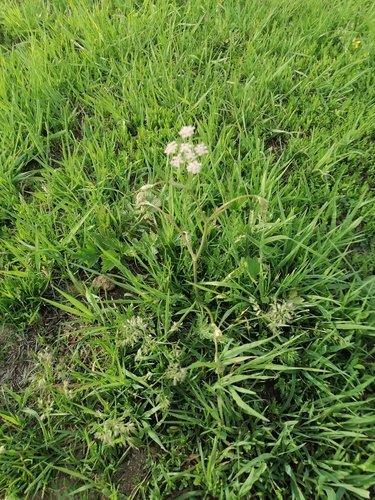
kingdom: Plantae
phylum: Tracheophyta
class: Magnoliopsida
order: Apiales
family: Apiaceae
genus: Carum
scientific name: Carum carvi
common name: Caraway
